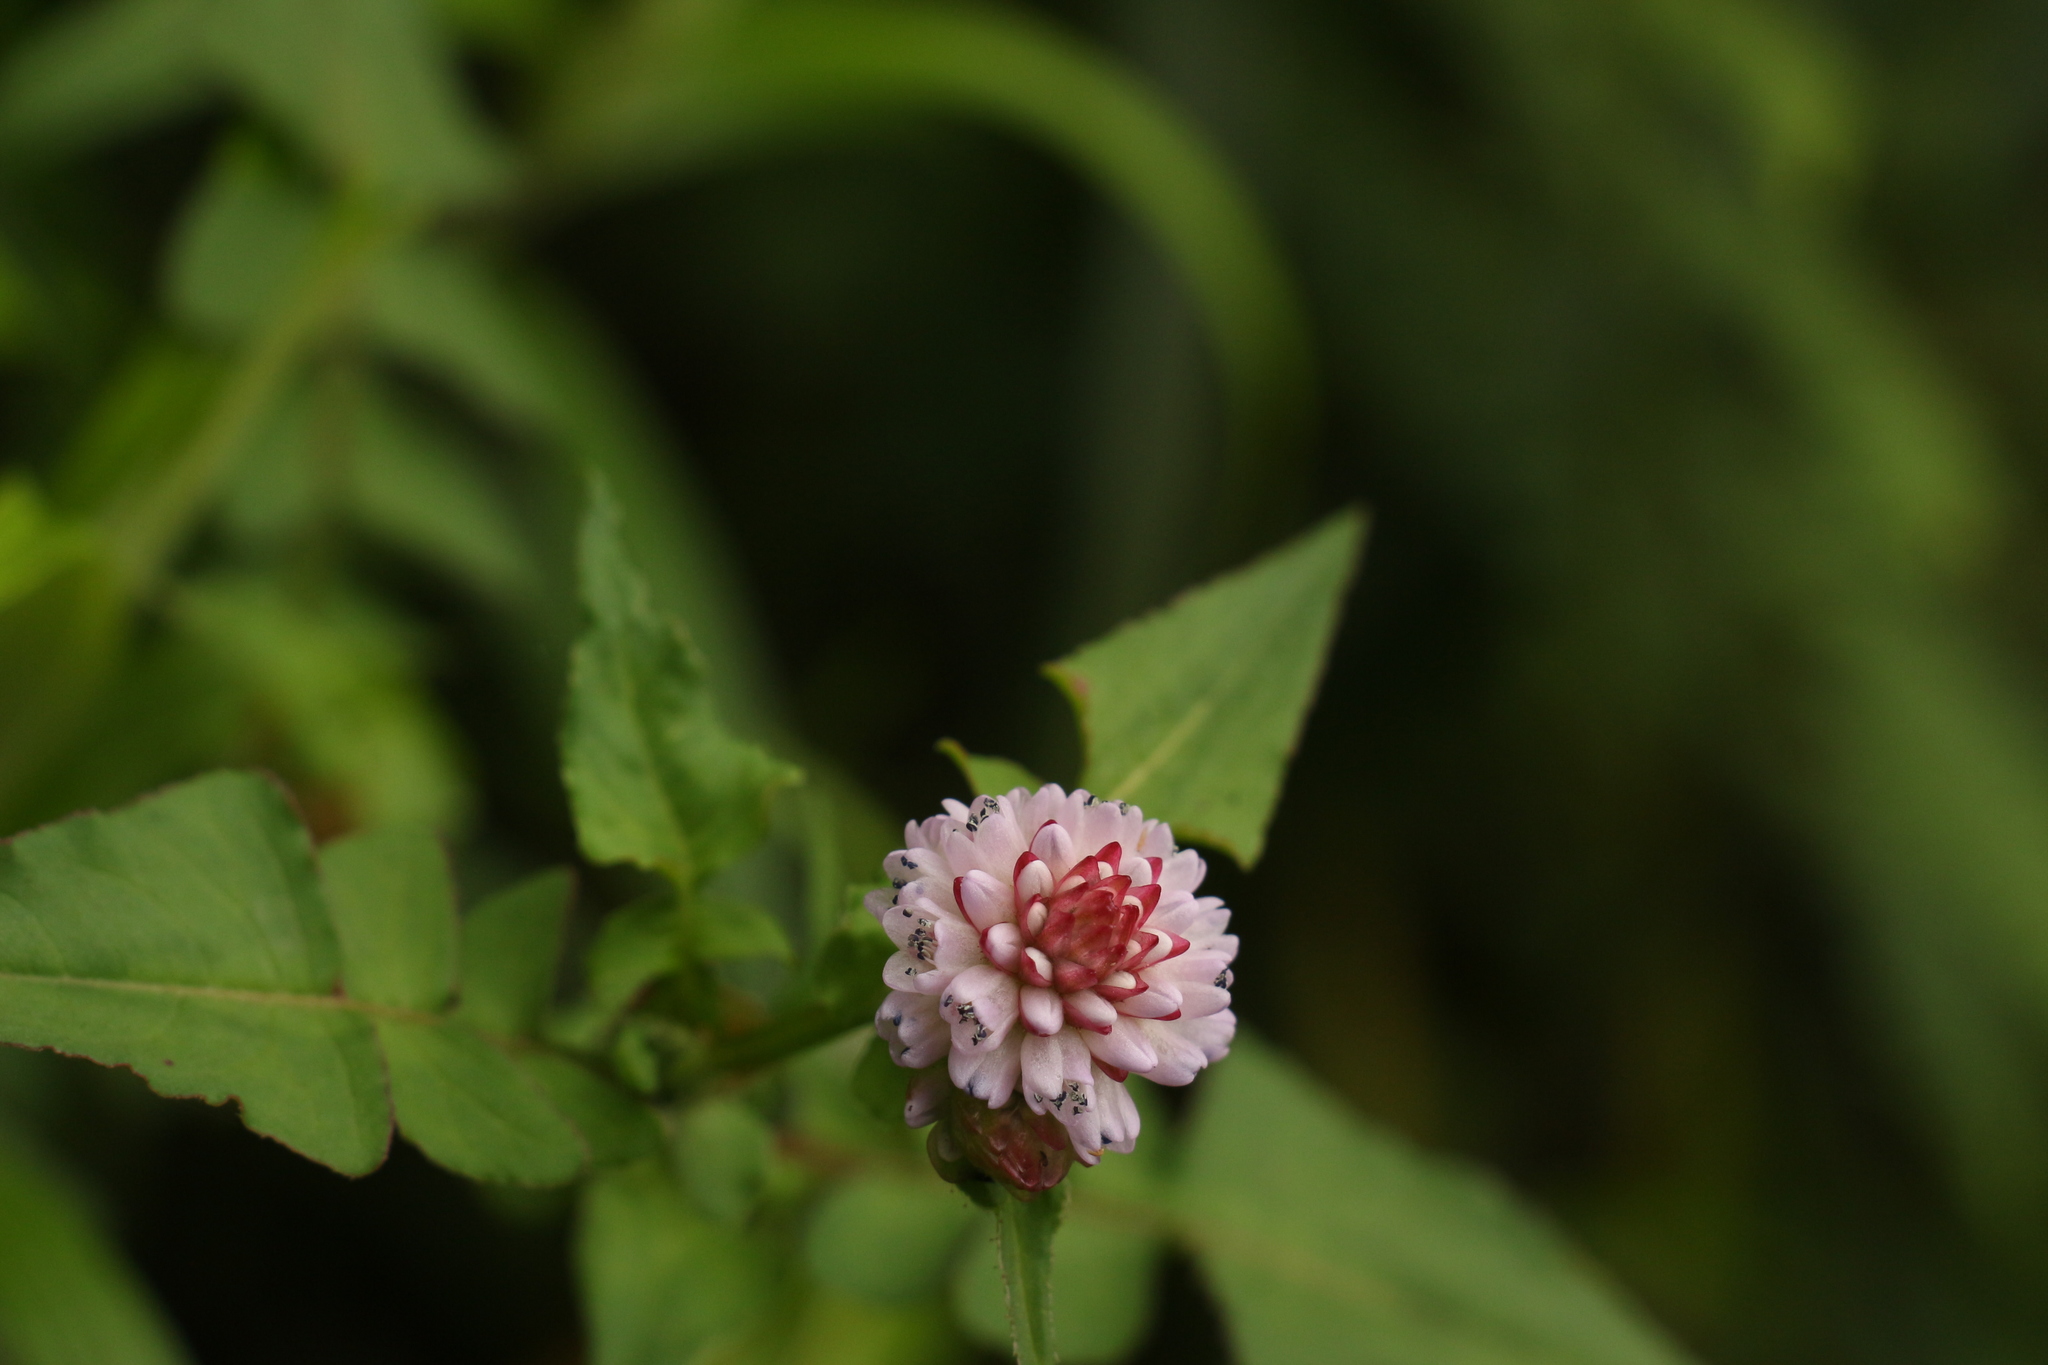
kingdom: Plantae
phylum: Tracheophyta
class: Magnoliopsida
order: Caryophyllales
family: Polygonaceae
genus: Persicaria
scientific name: Persicaria runcinata
